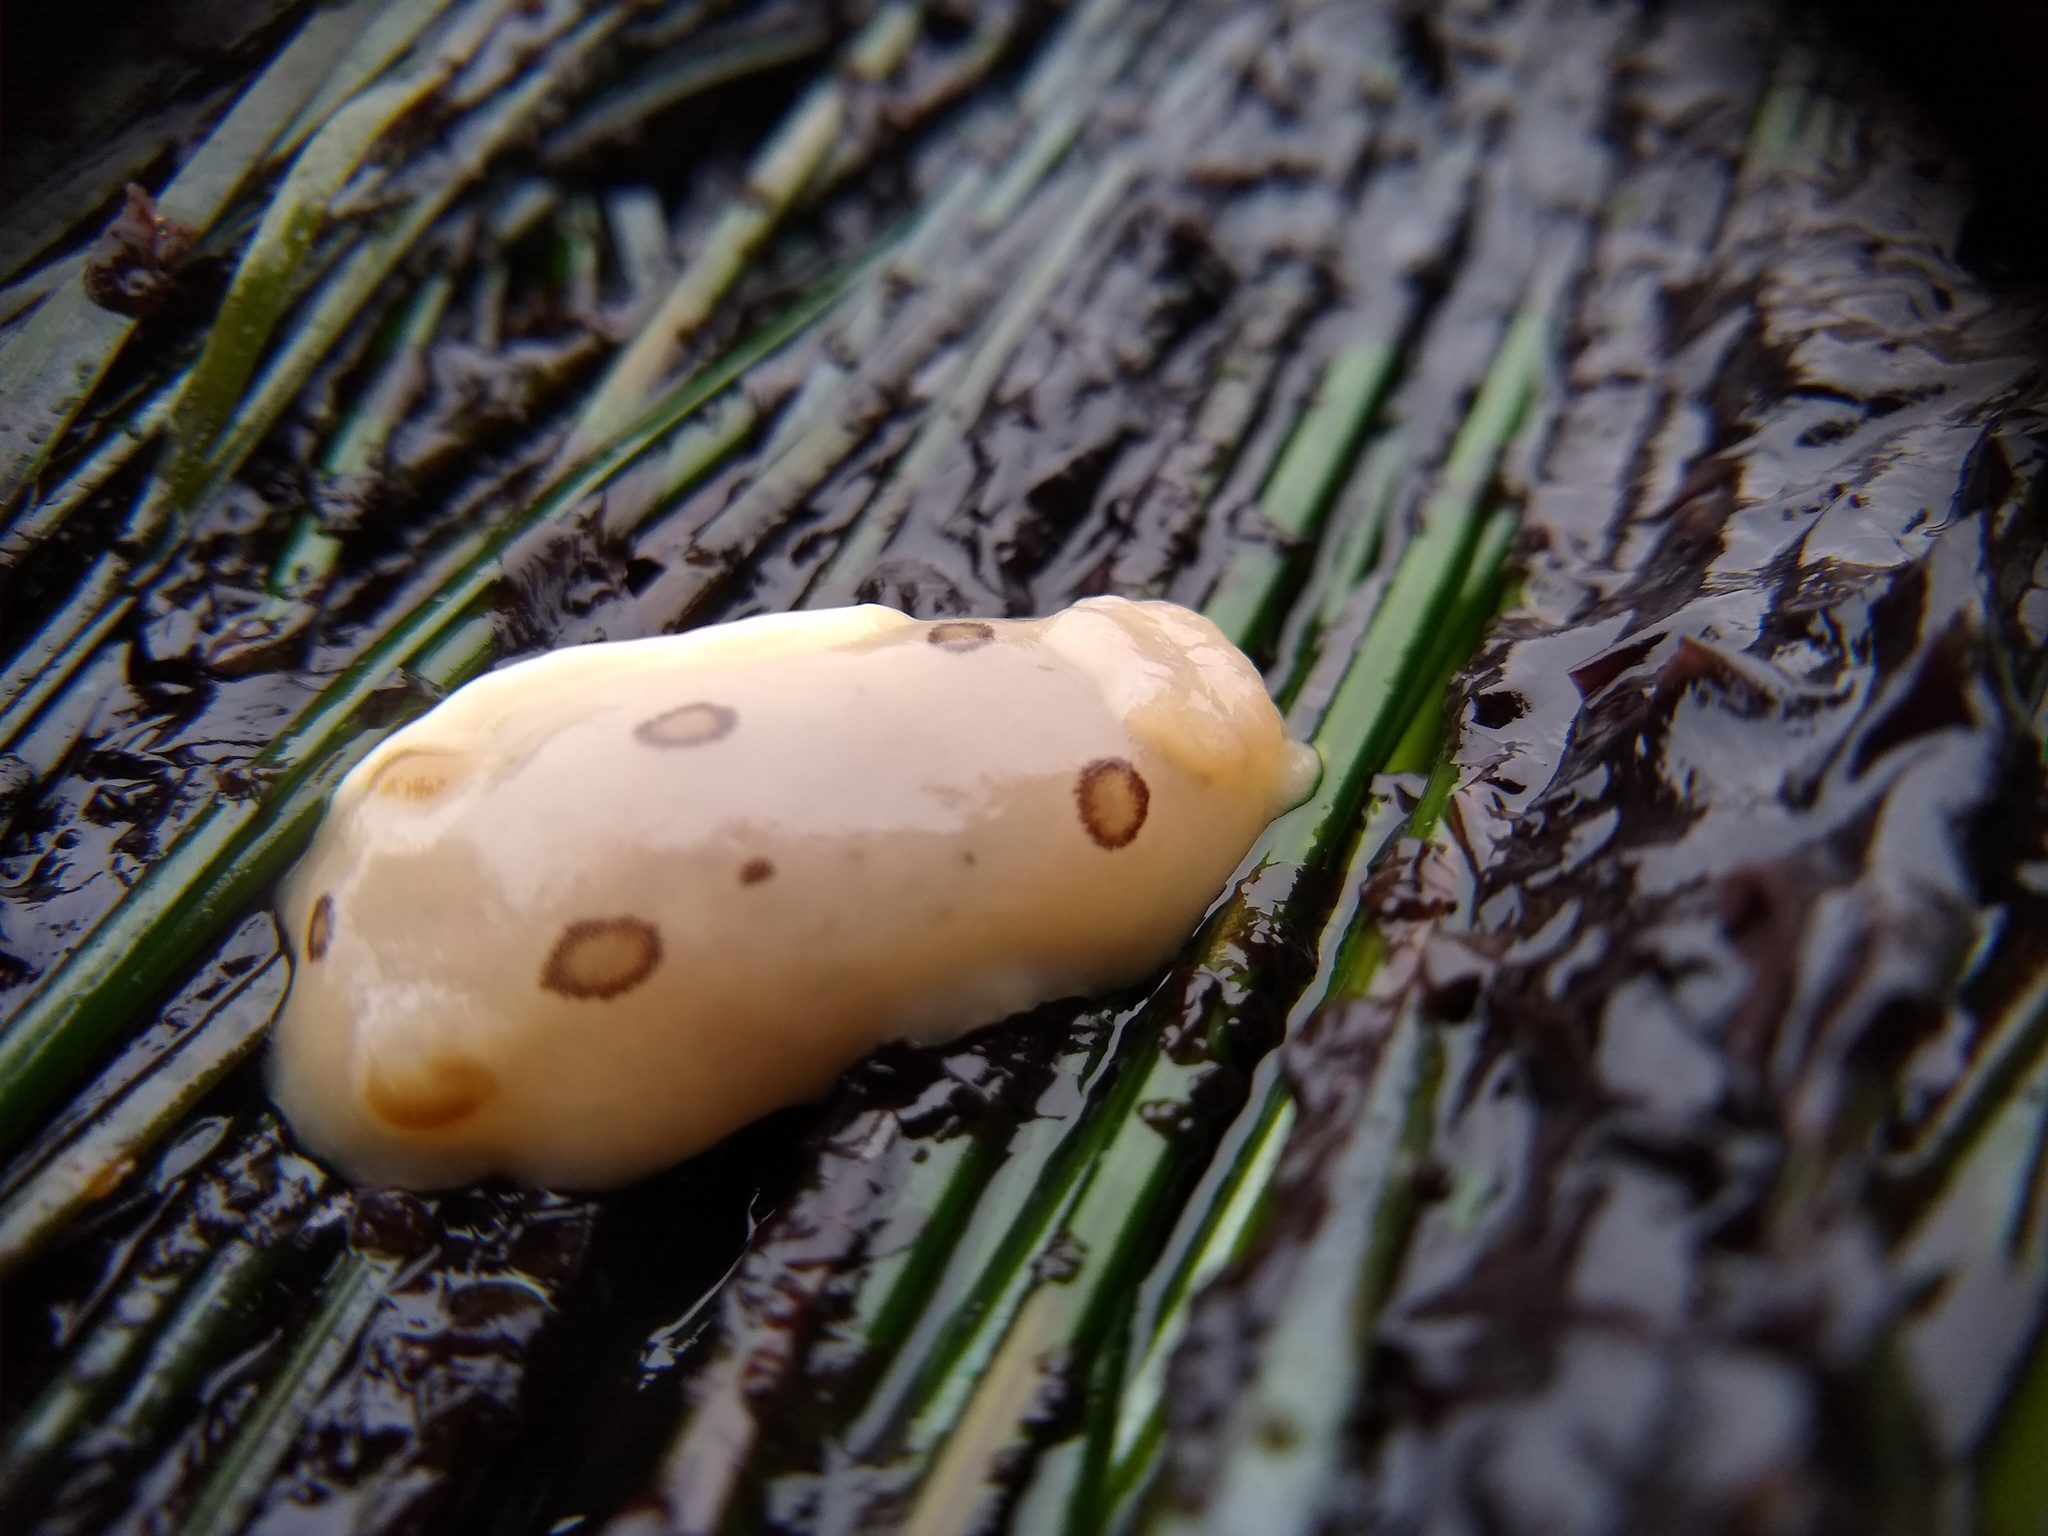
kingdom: Animalia
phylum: Mollusca
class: Gastropoda
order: Nudibranchia
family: Discodorididae
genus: Diaulula
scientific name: Diaulula sandiegensis
